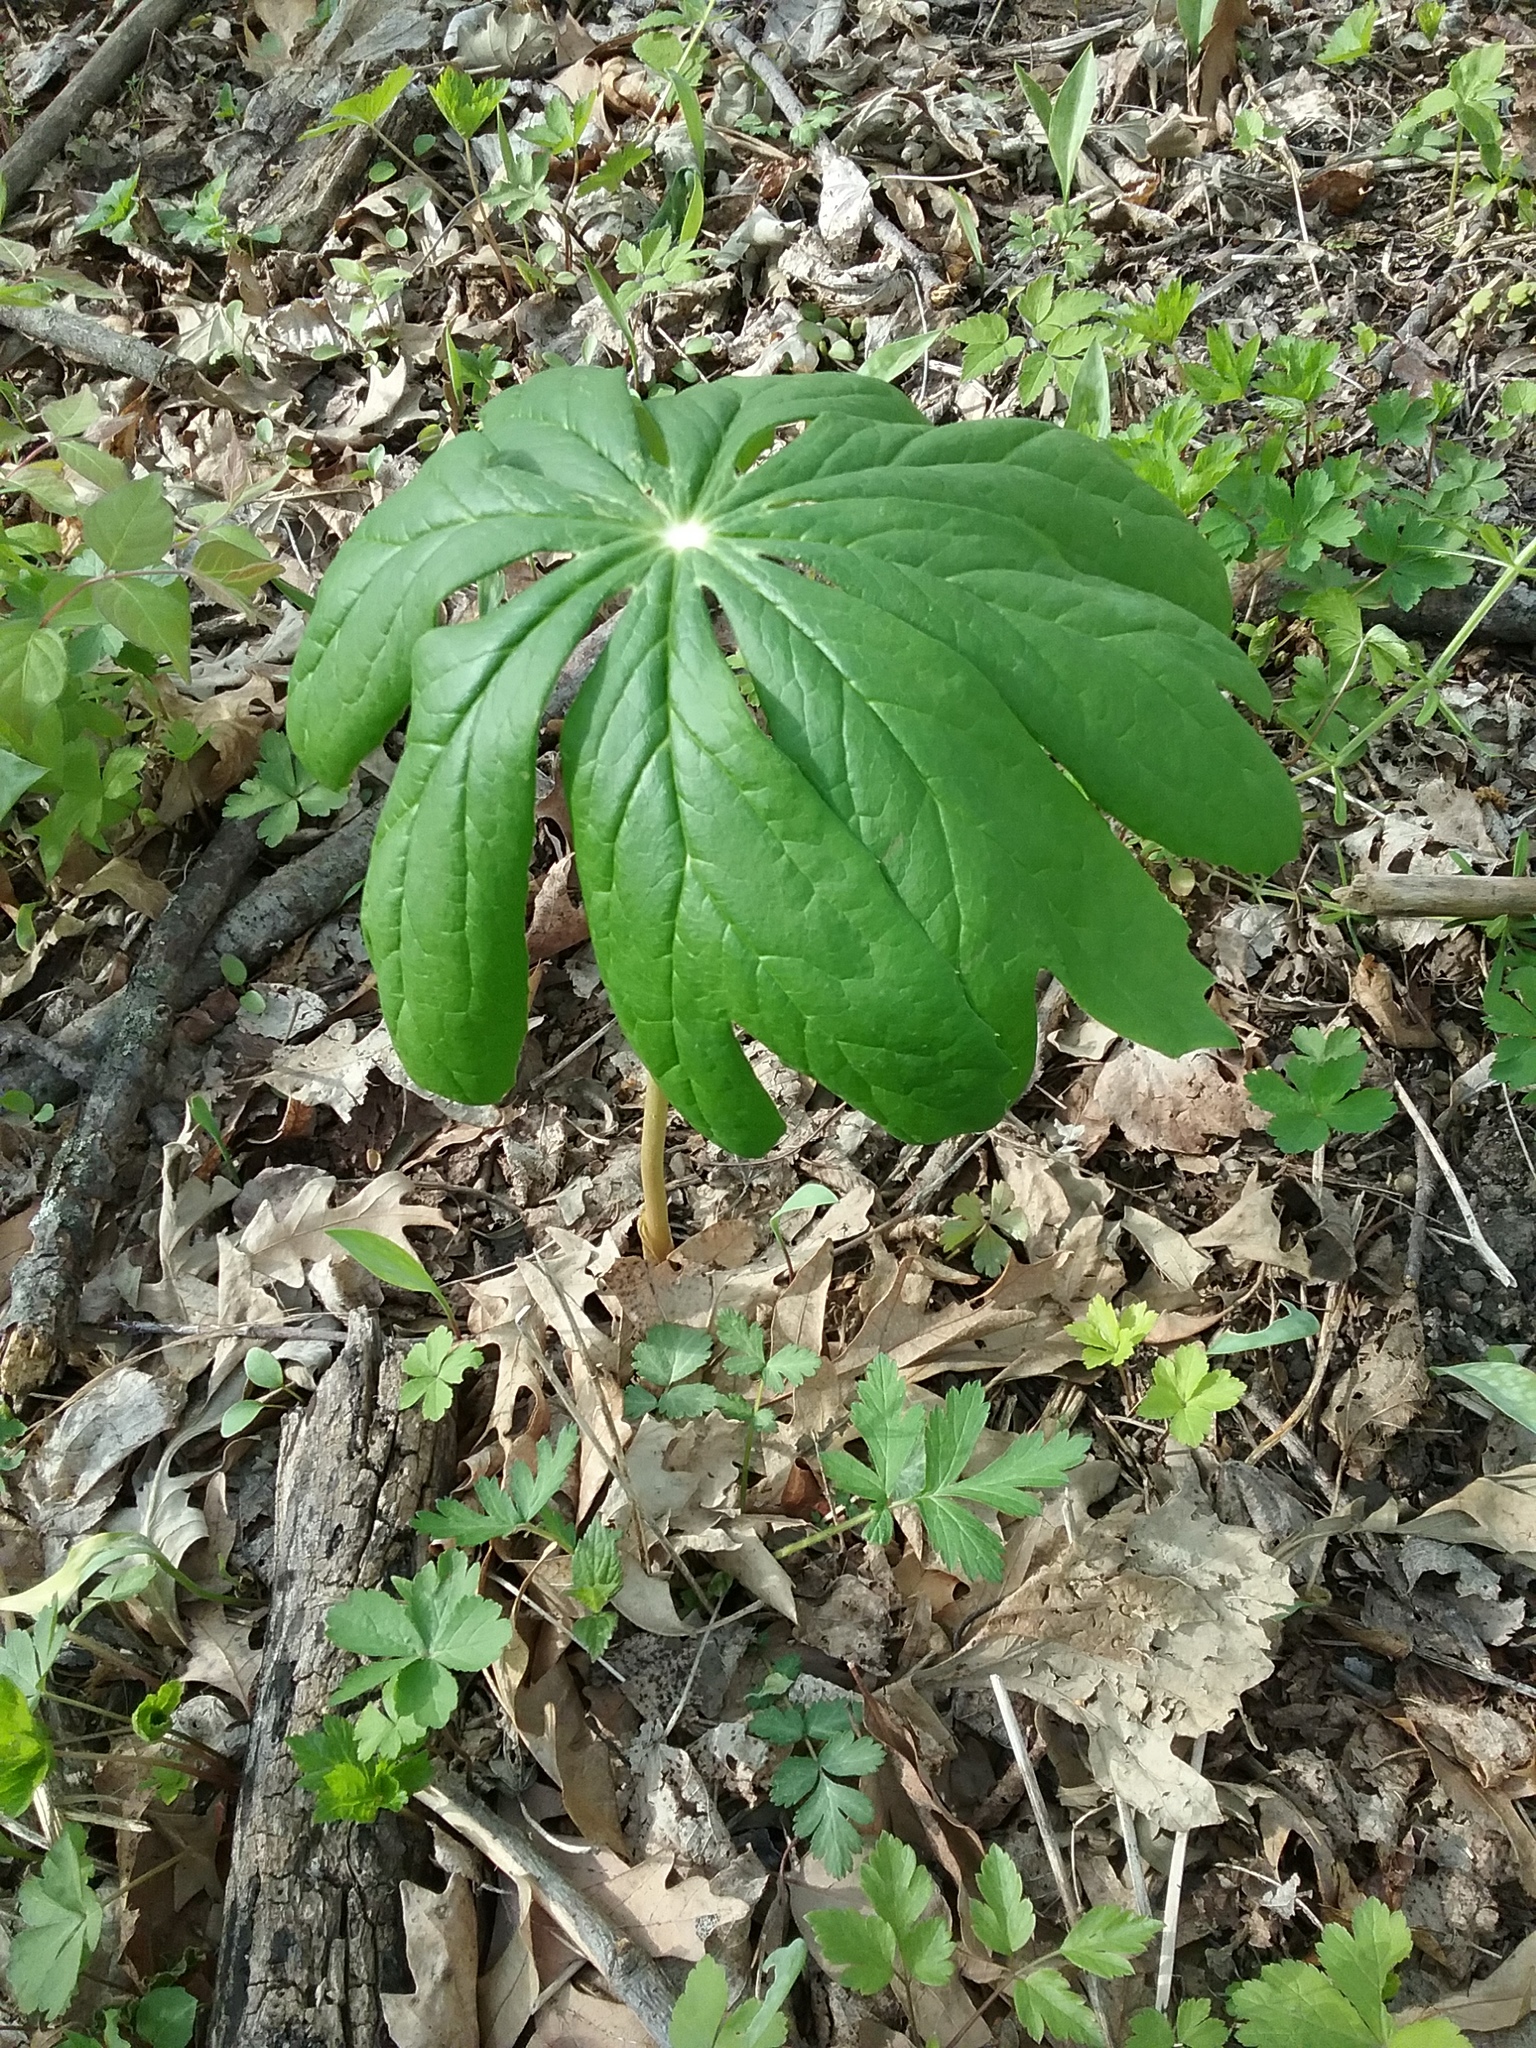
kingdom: Plantae
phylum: Tracheophyta
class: Magnoliopsida
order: Ranunculales
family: Berberidaceae
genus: Podophyllum
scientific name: Podophyllum peltatum
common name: Wild mandrake
